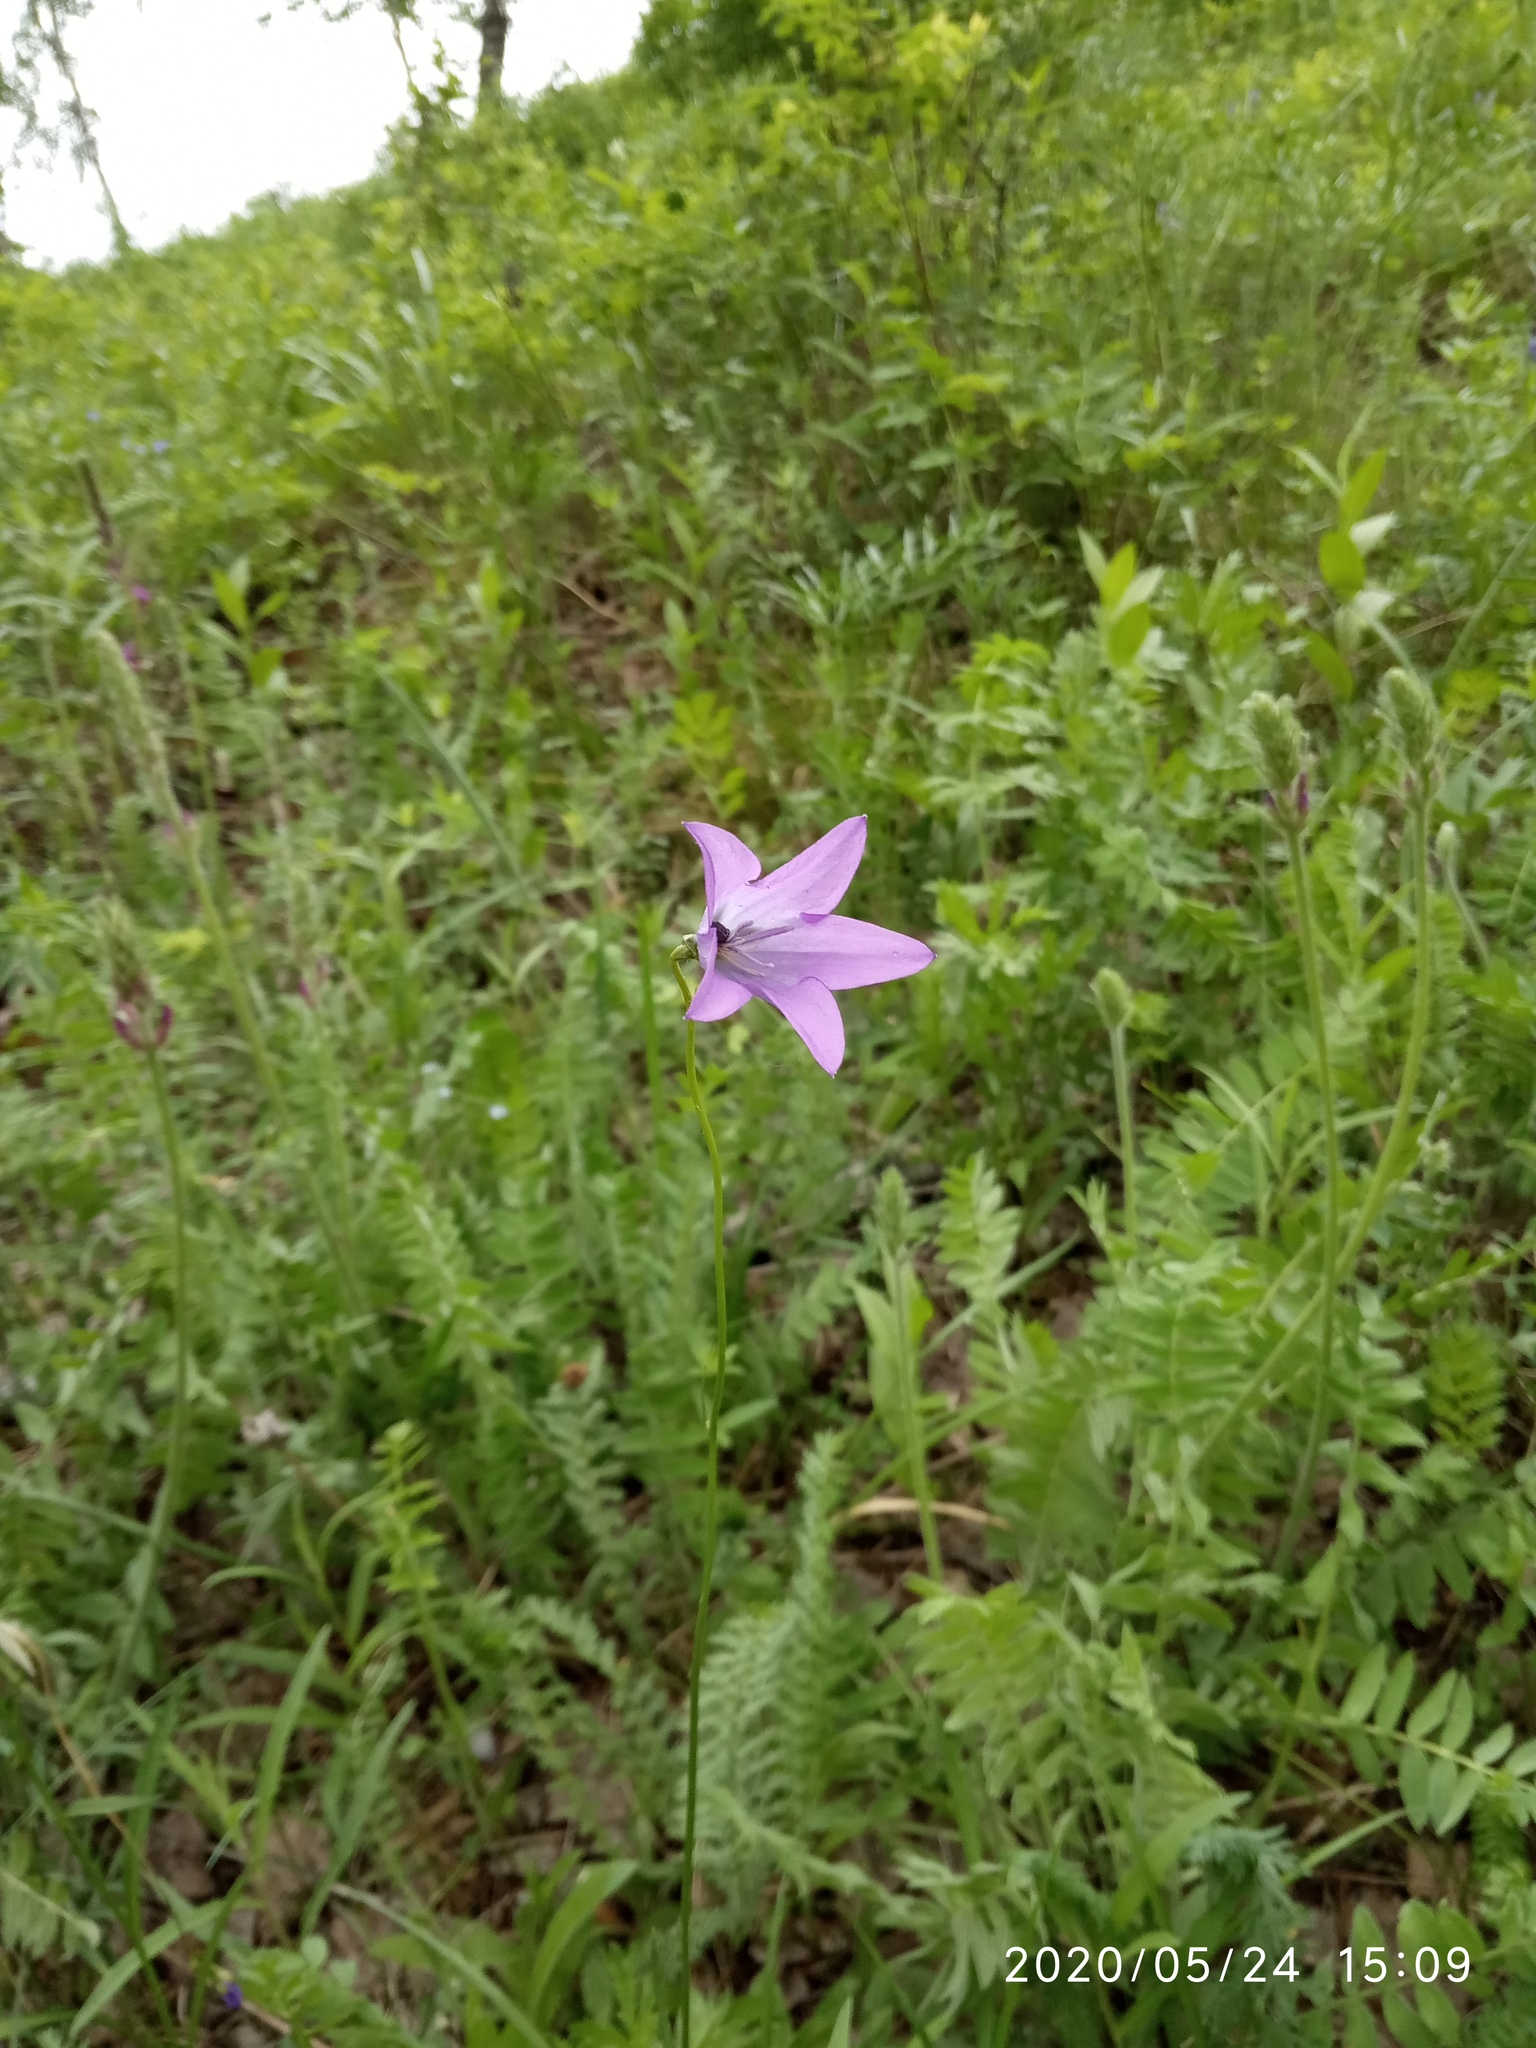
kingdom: Plantae
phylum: Tracheophyta
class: Magnoliopsida
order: Asterales
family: Campanulaceae
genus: Campanula
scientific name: Campanula stevenii
